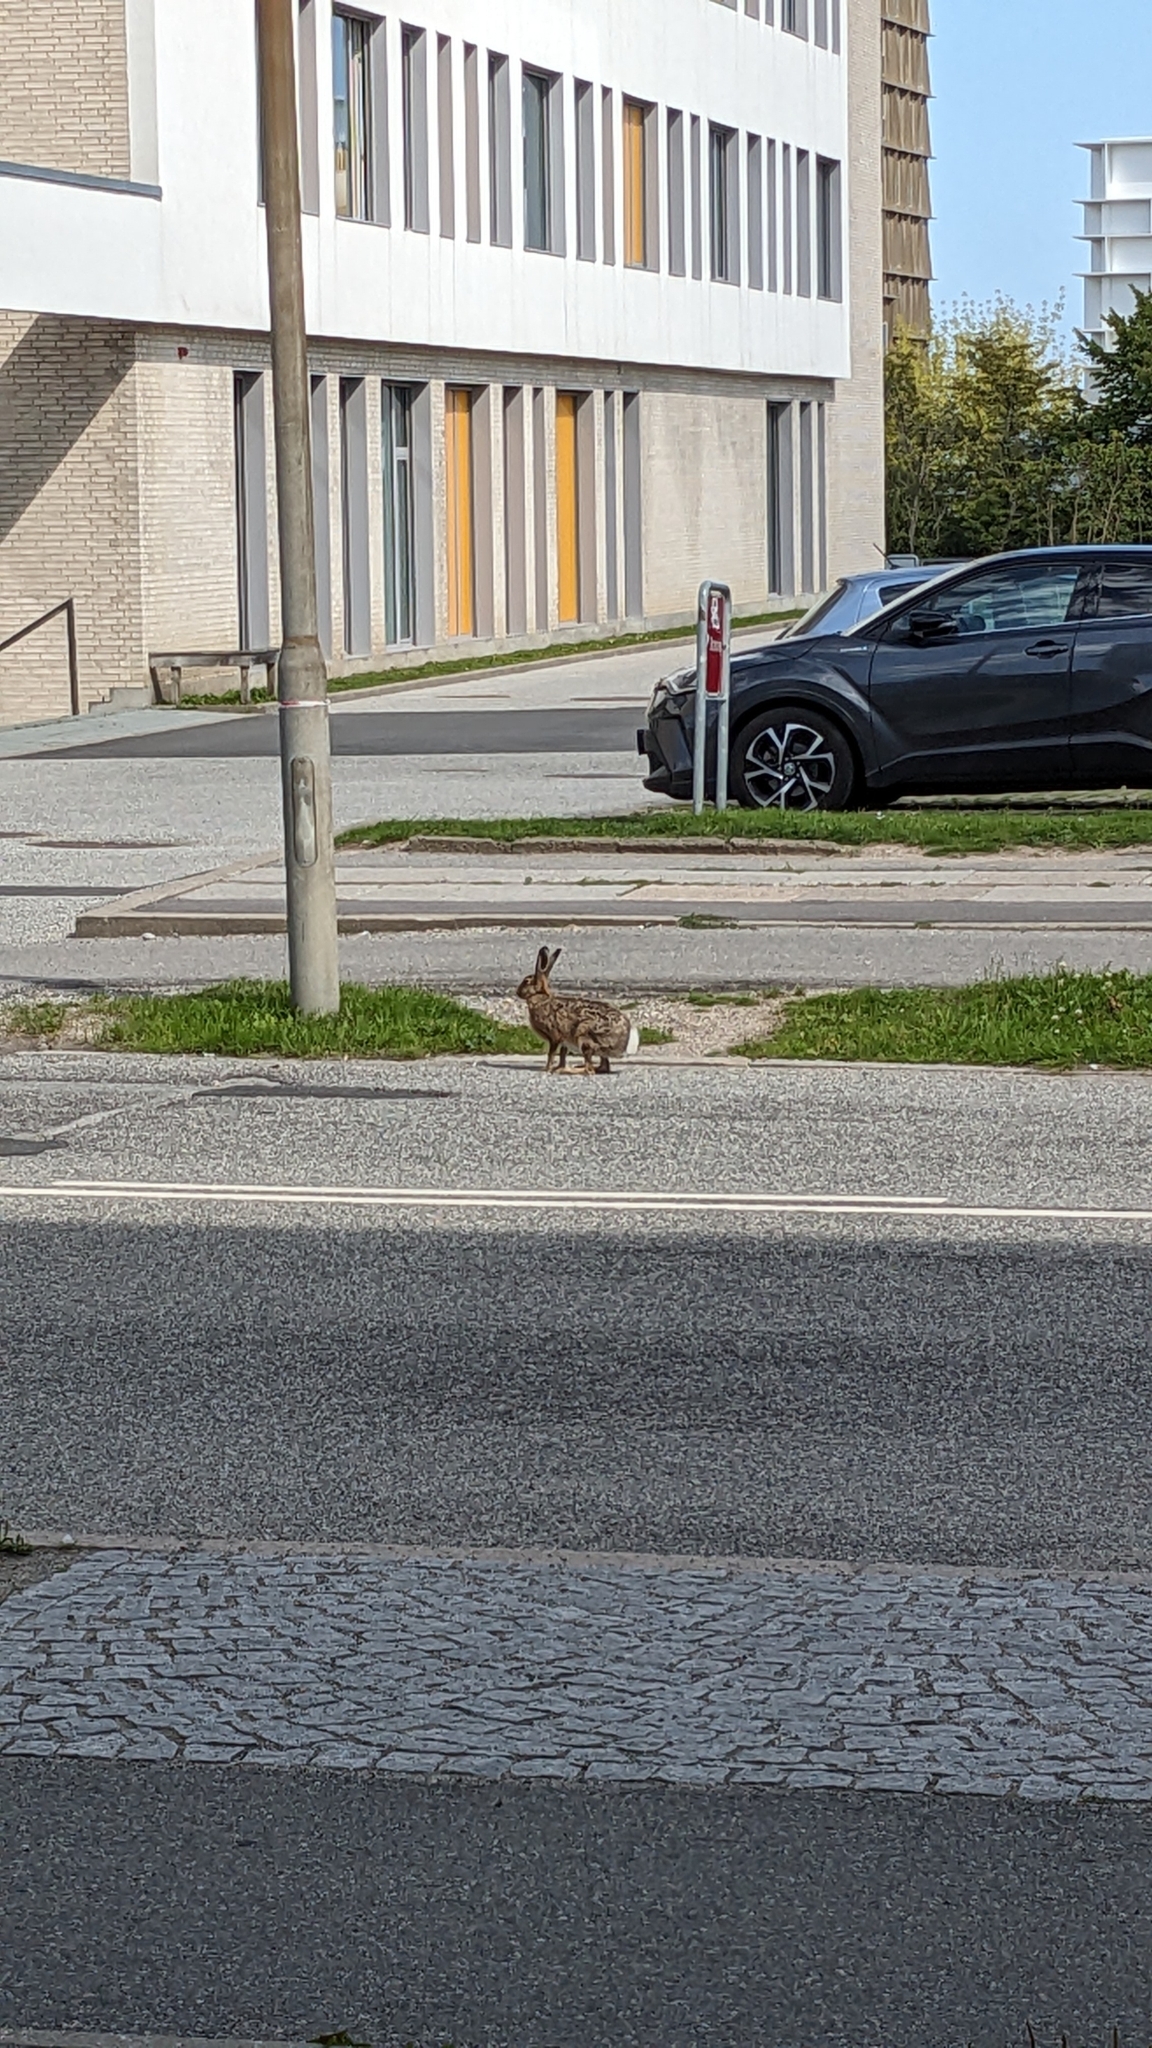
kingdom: Animalia
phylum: Chordata
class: Mammalia
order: Lagomorpha
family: Leporidae
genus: Lepus
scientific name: Lepus europaeus
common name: European hare
